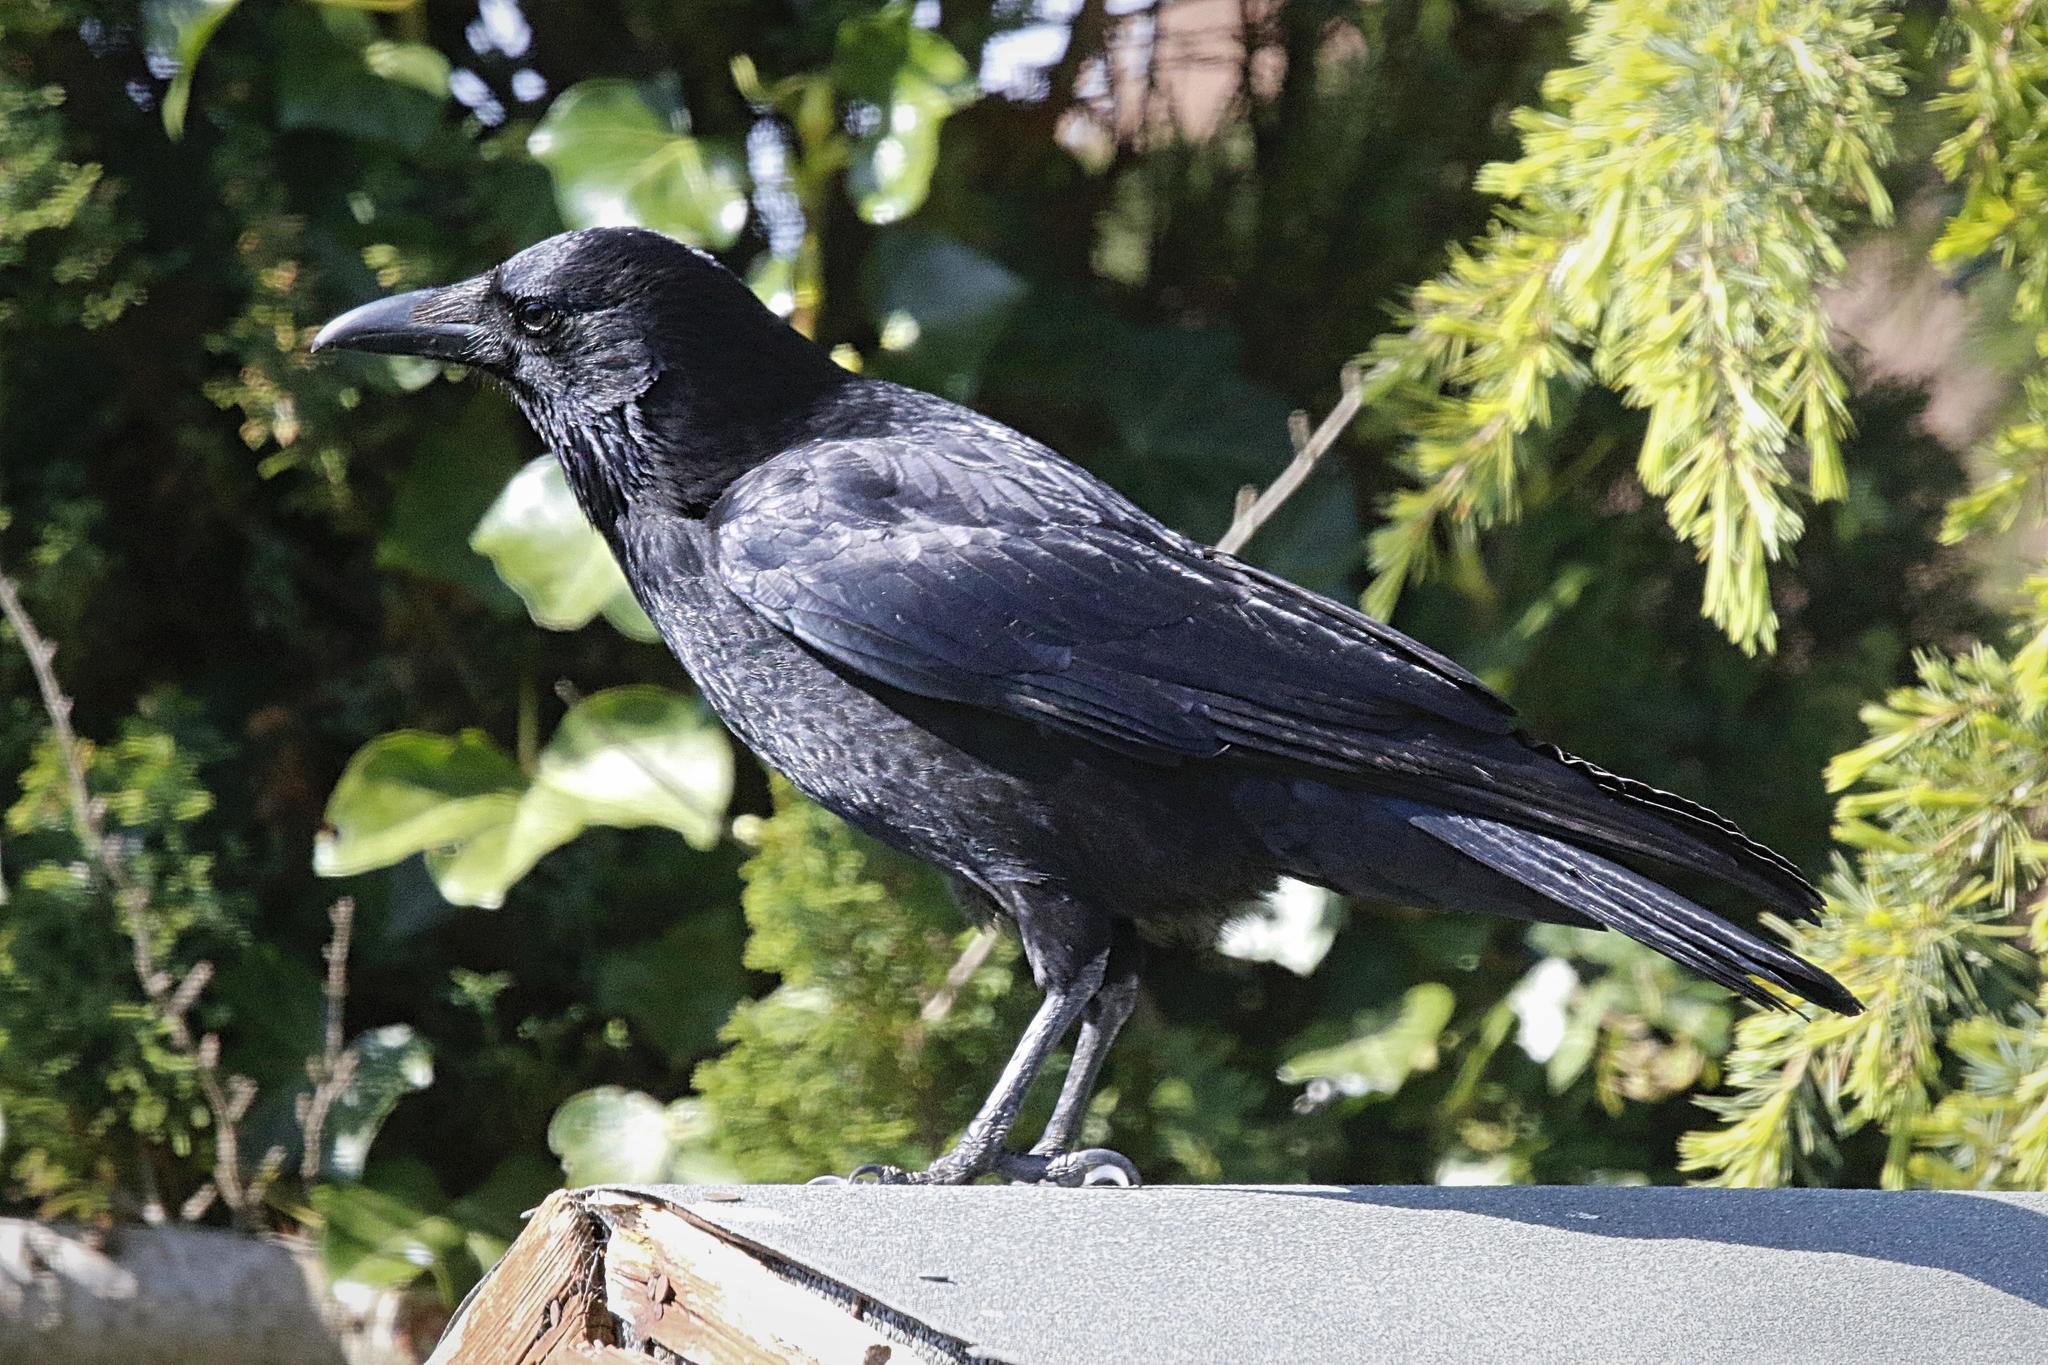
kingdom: Animalia
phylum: Chordata
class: Aves
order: Passeriformes
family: Corvidae
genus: Corvus
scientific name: Corvus corone
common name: Carrion crow
